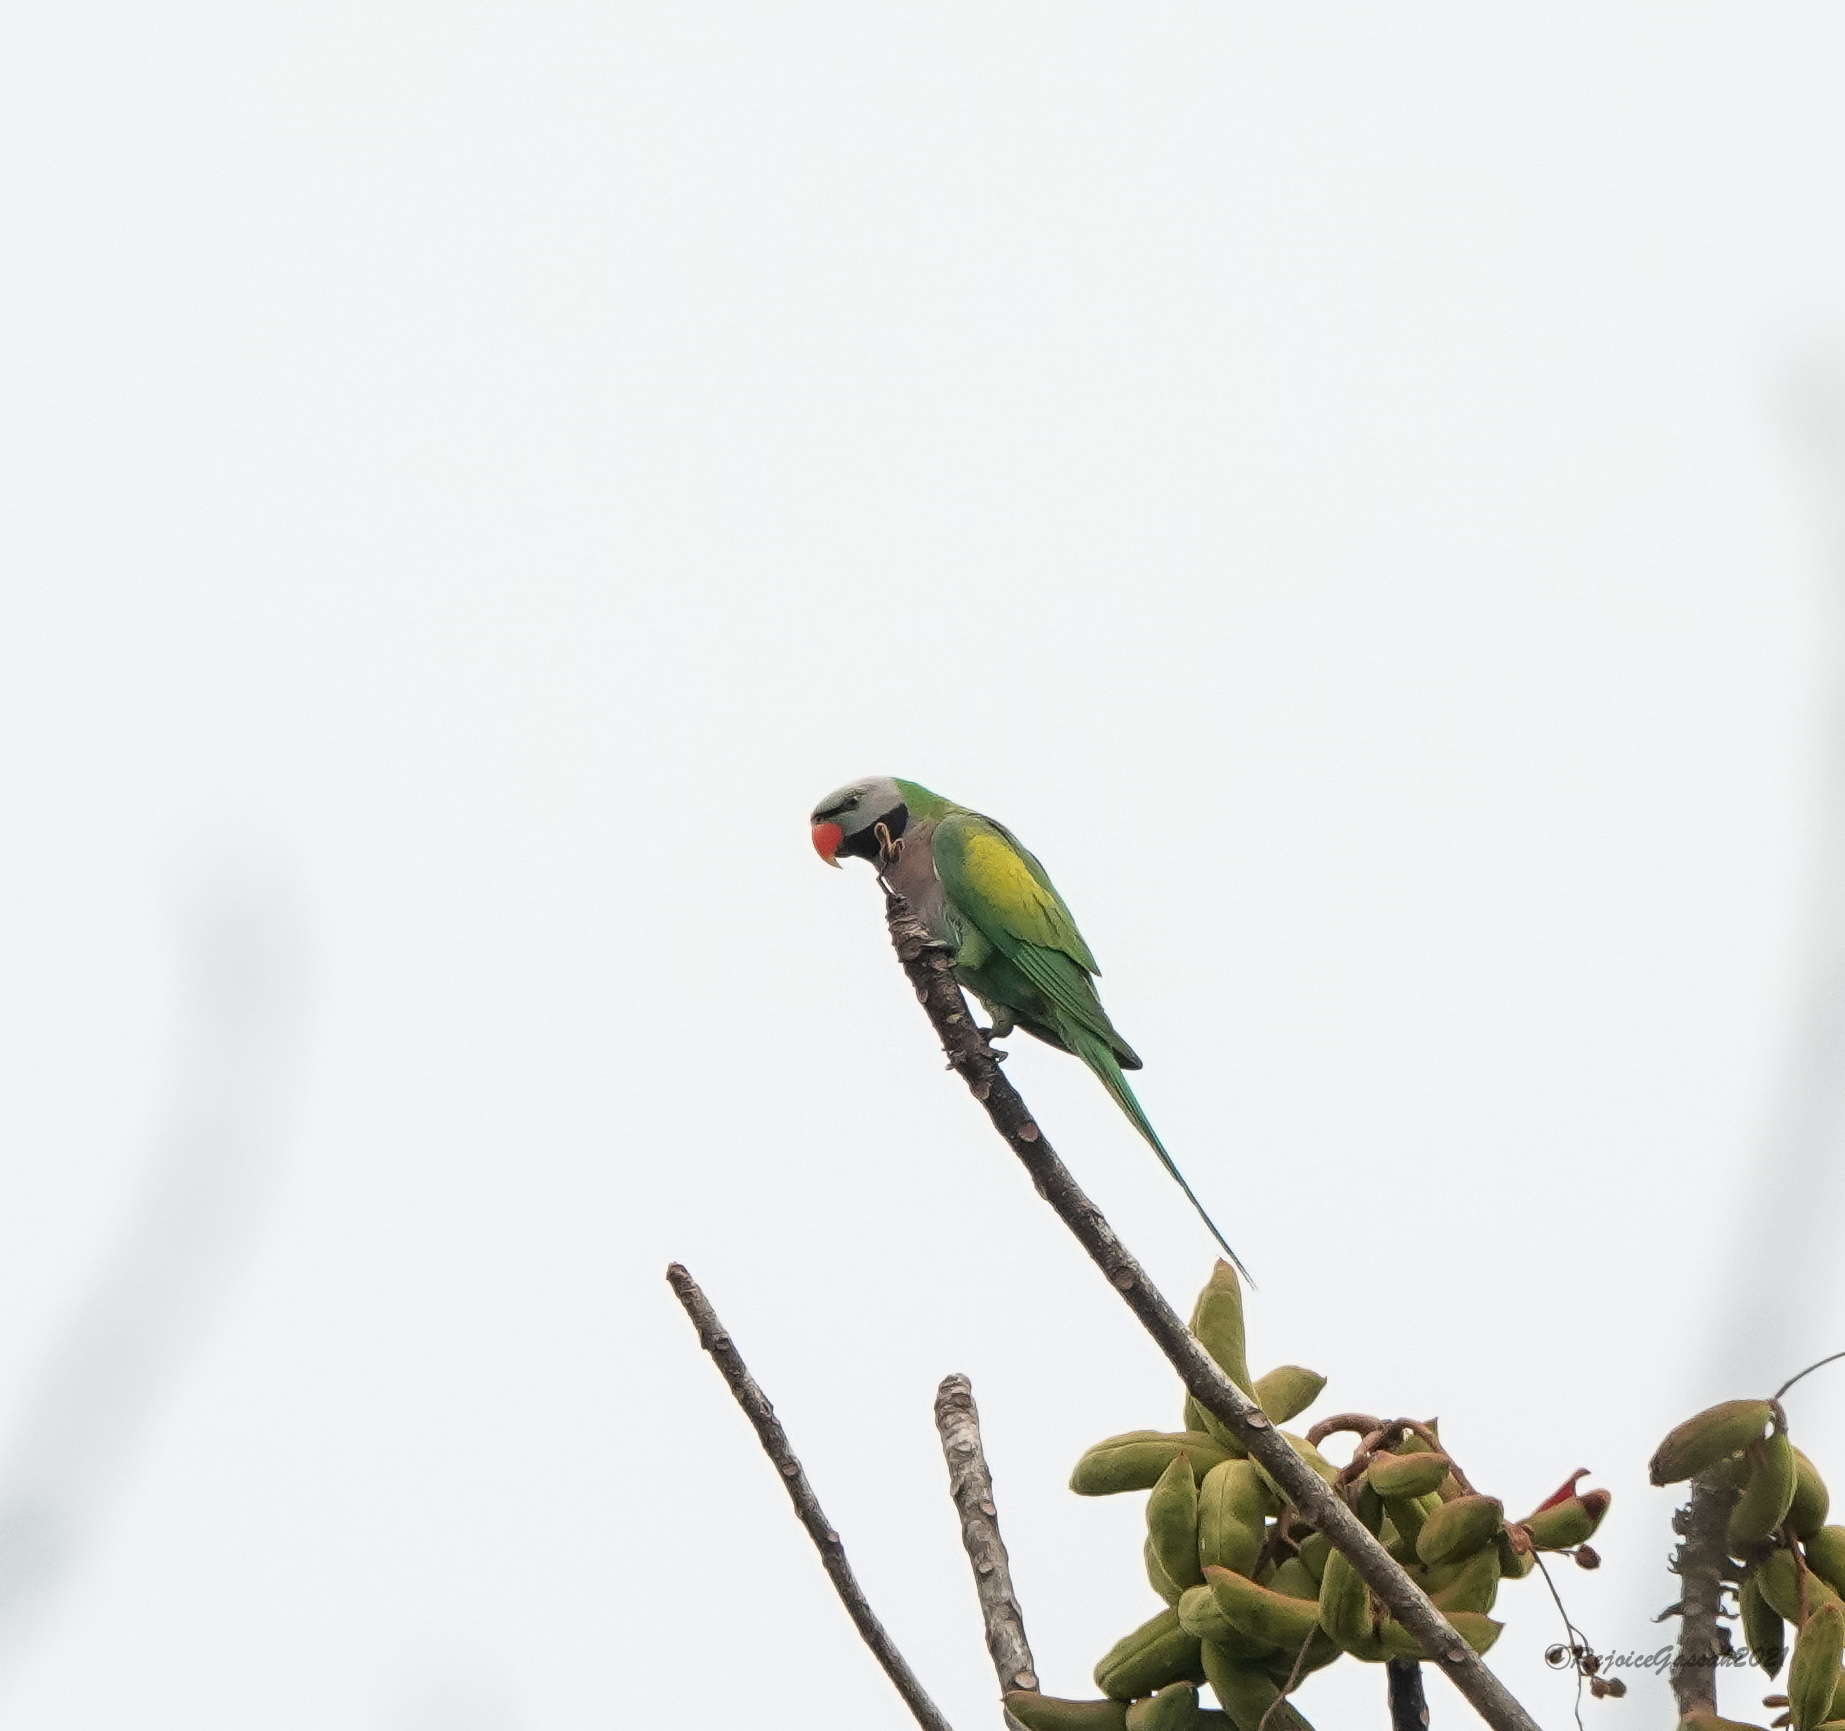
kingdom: Animalia
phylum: Chordata
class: Aves
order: Psittaciformes
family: Psittacidae
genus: Psittacula
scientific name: Psittacula alexandri
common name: Red-breasted parakeet
